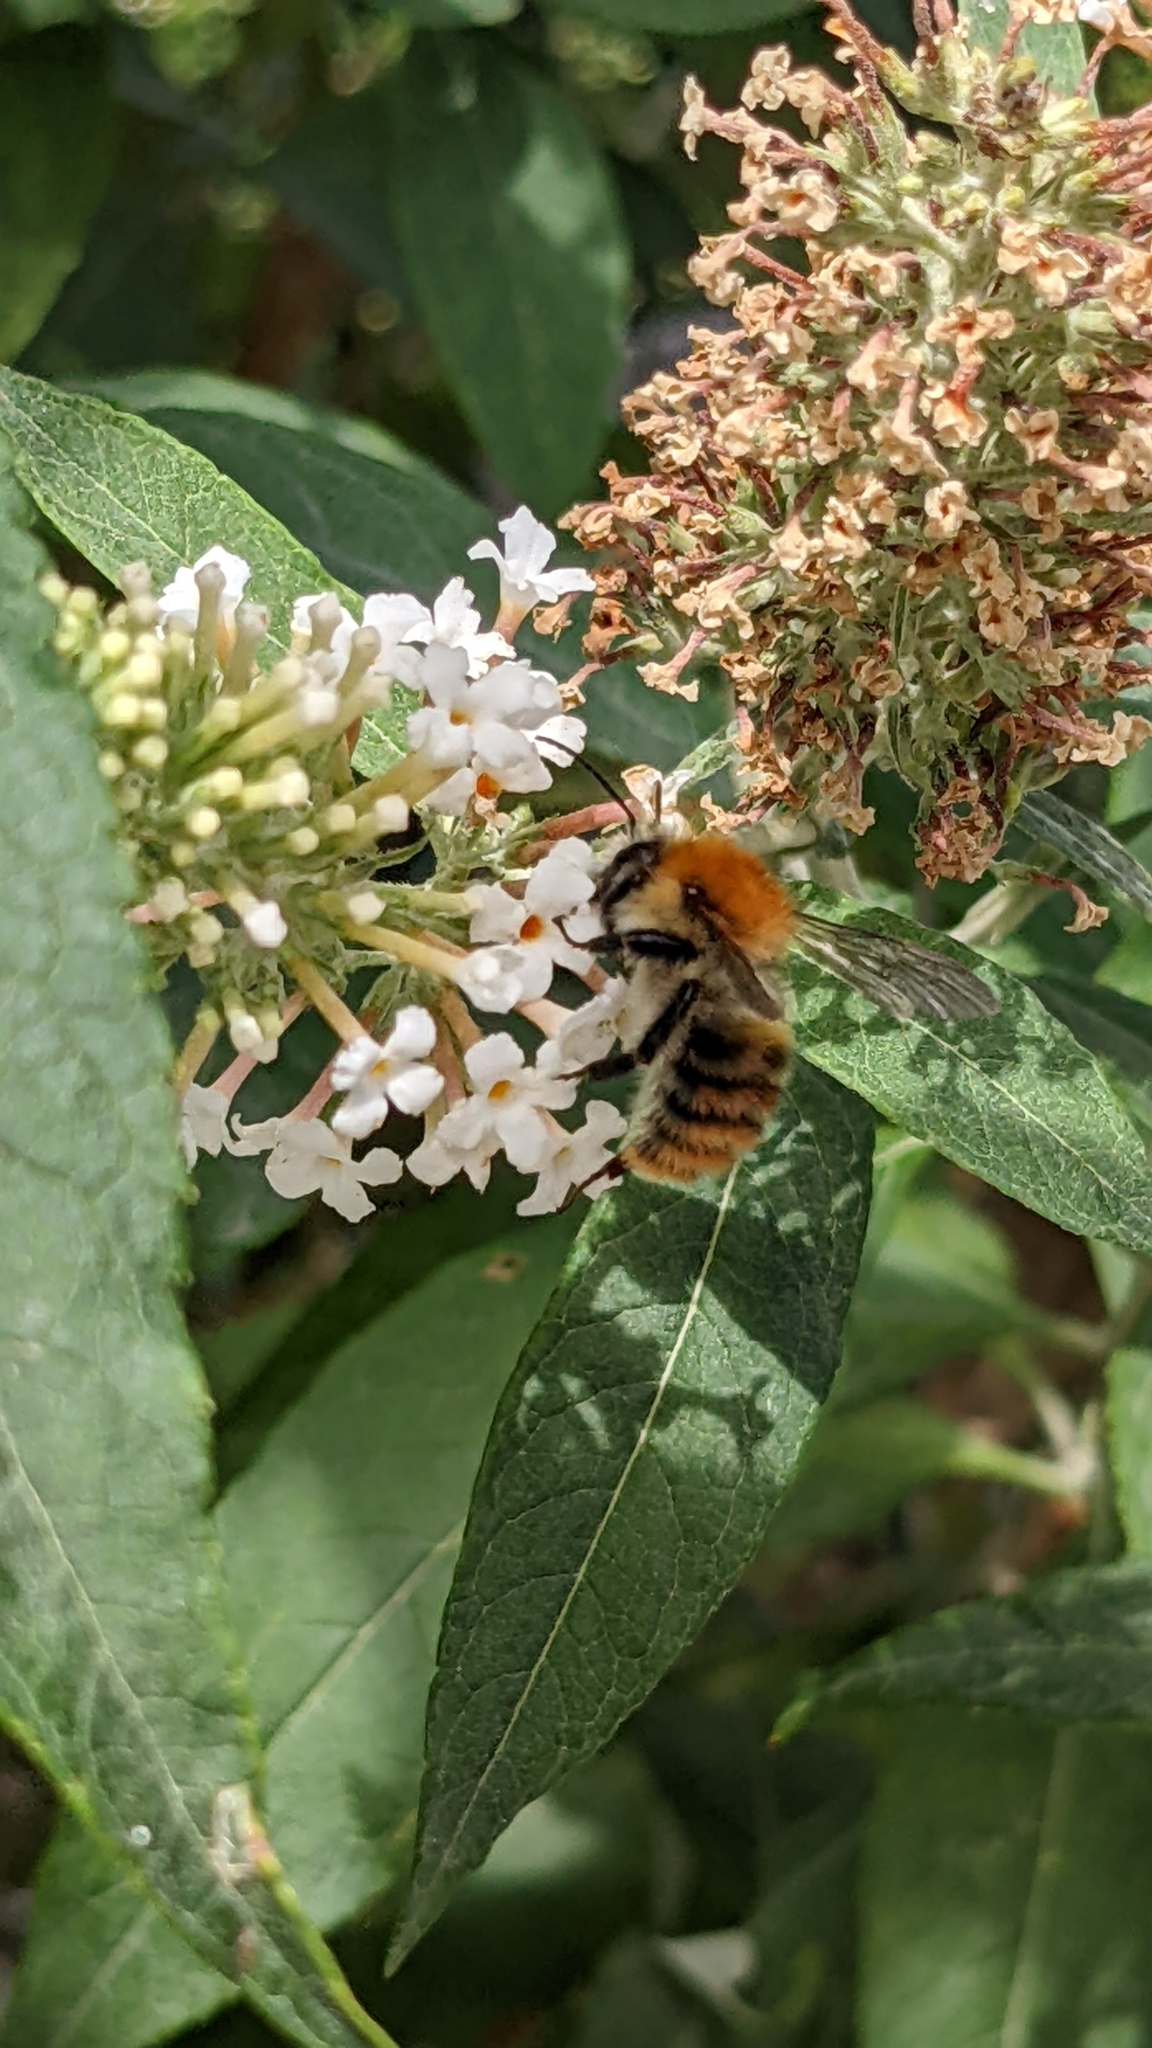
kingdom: Animalia
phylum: Arthropoda
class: Insecta
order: Hymenoptera
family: Apidae
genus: Bombus
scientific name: Bombus pascuorum
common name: Common carder bee
